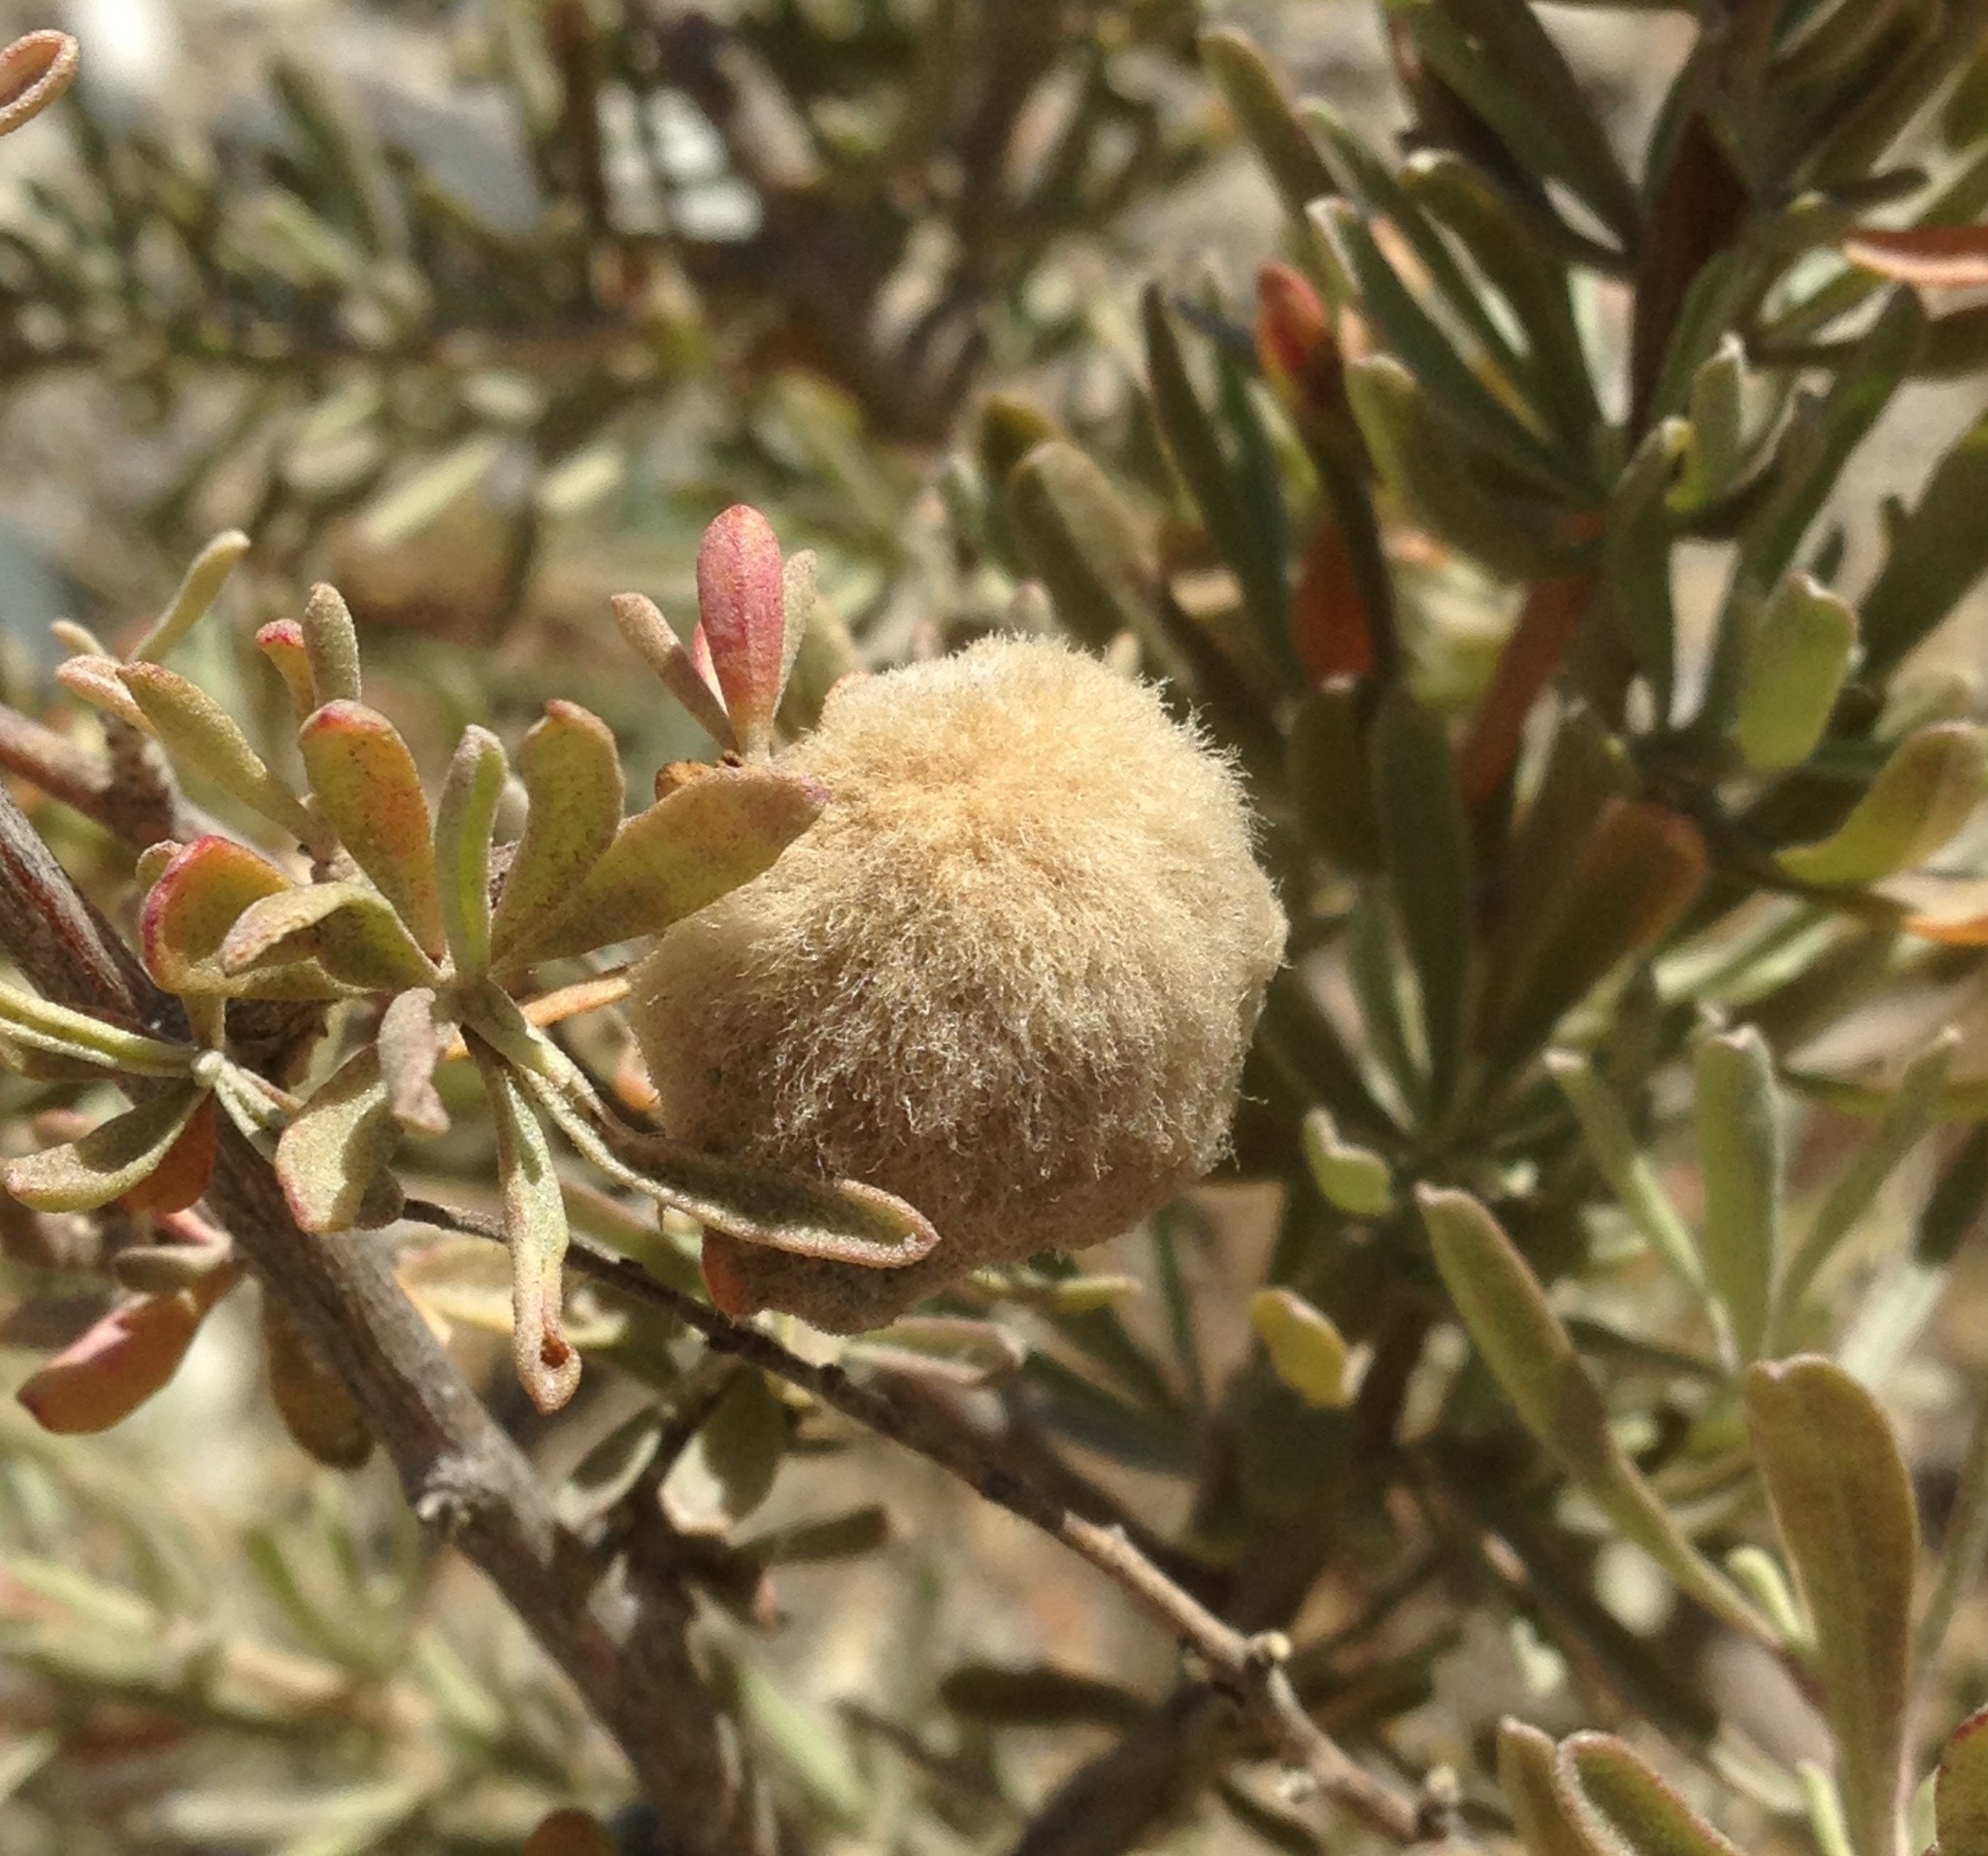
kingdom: Animalia
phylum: Arthropoda
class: Insecta
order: Diptera
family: Cecidomyiidae
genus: Asphondylia
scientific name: Asphondylia neomexicana
